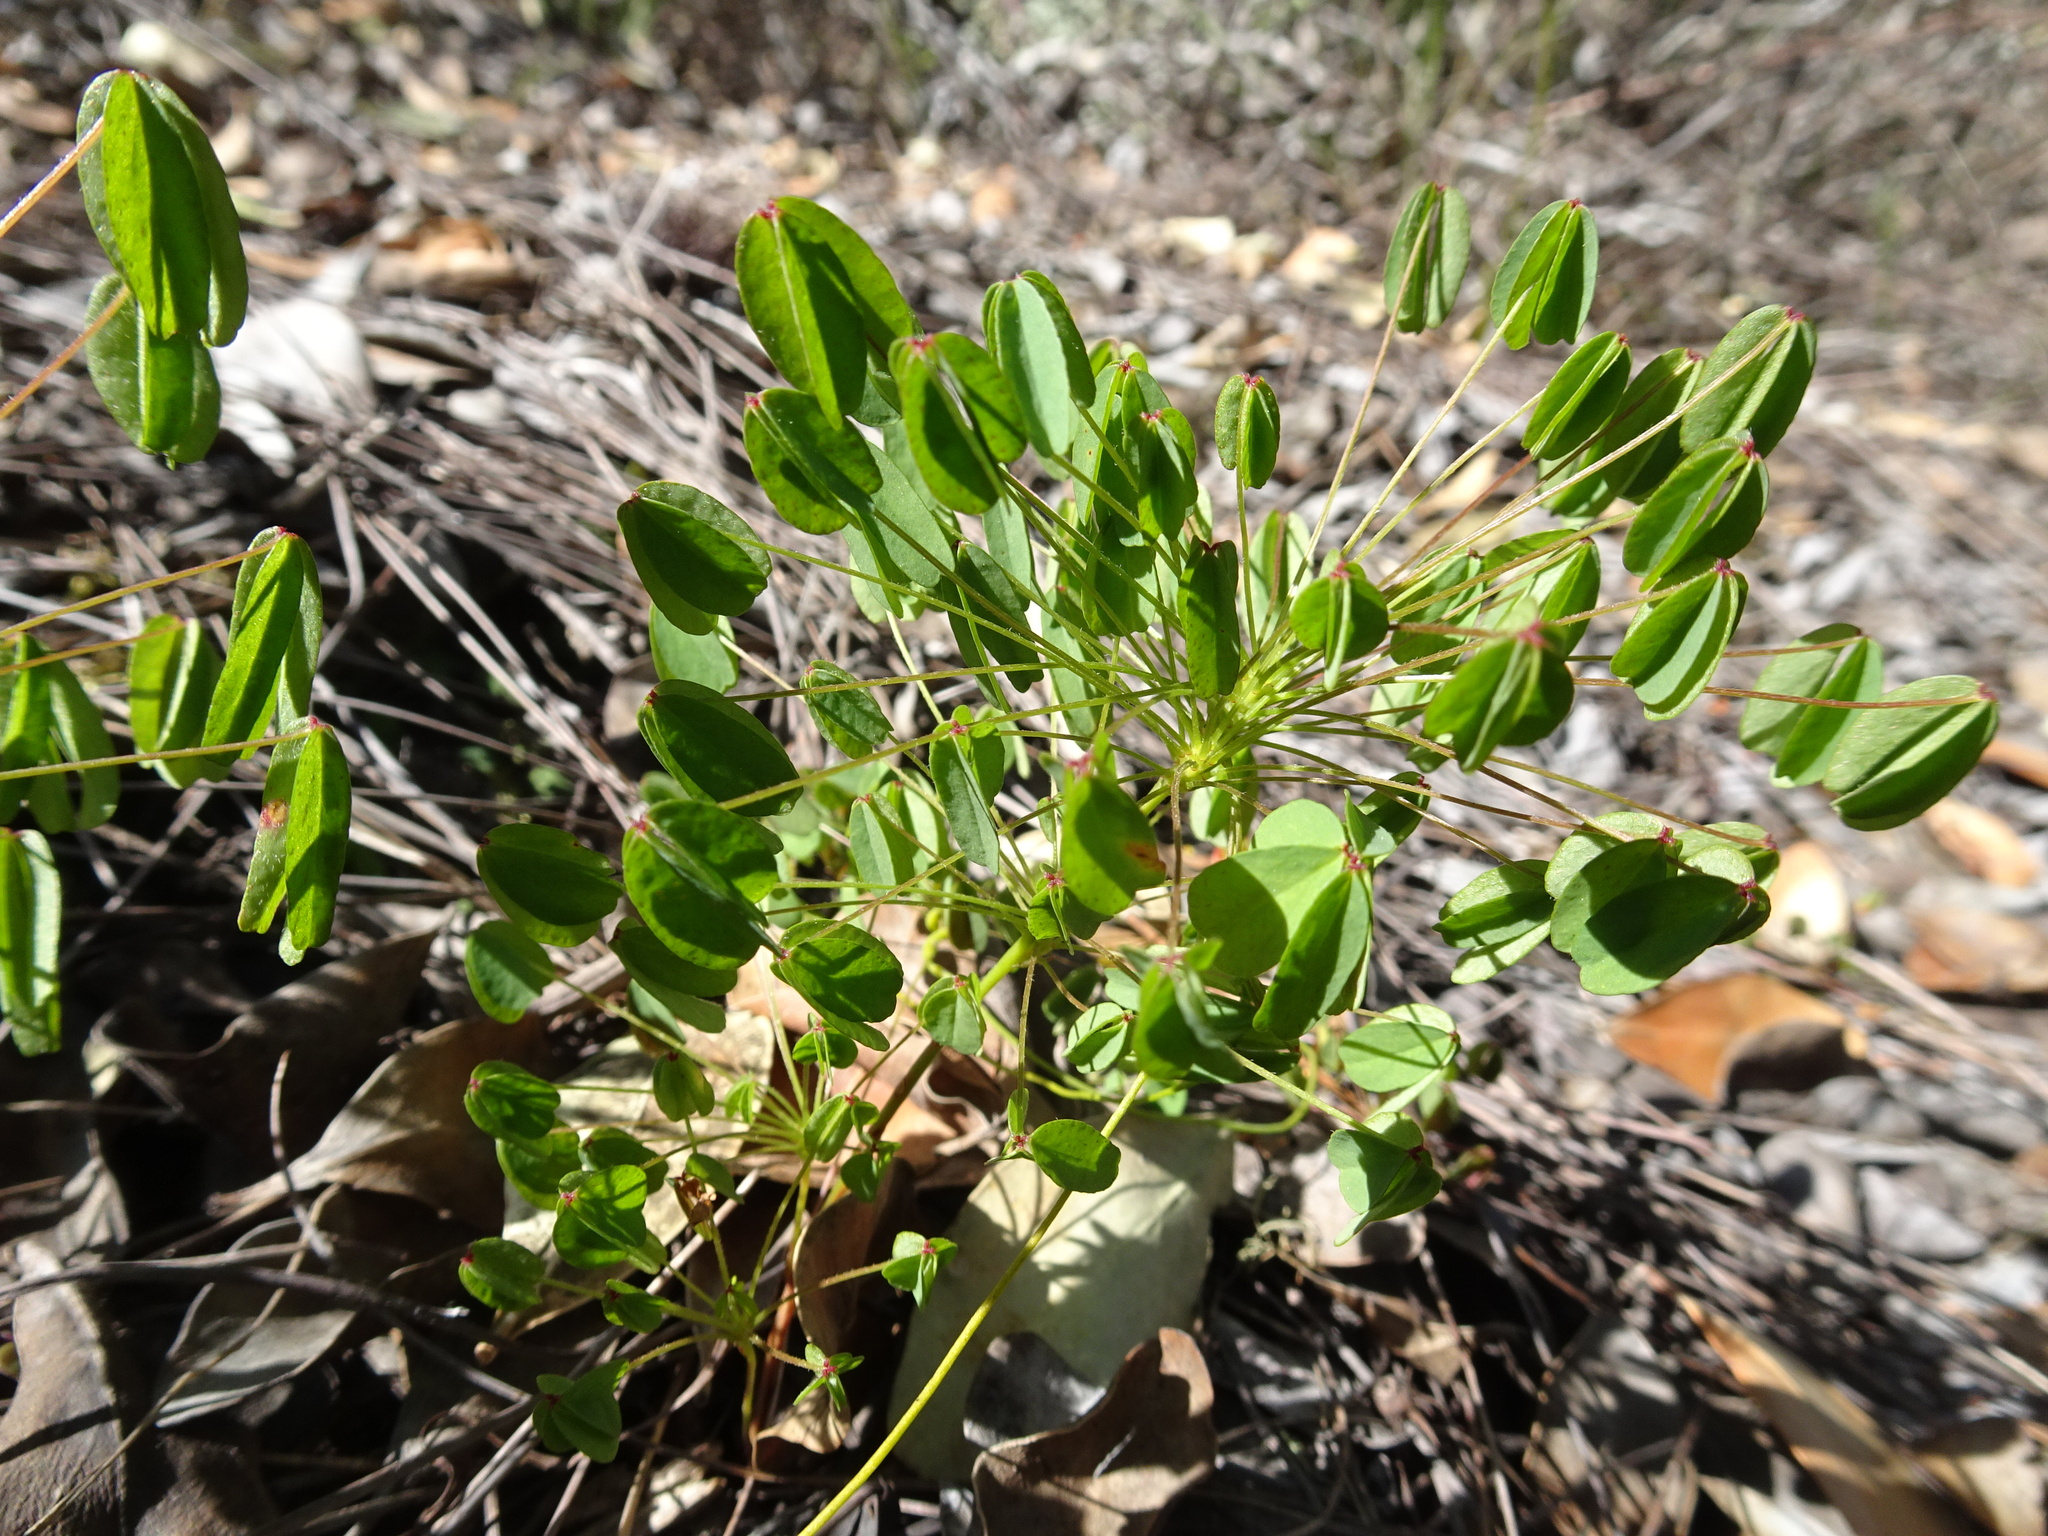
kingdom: Plantae
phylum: Tracheophyta
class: Magnoliopsida
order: Oxalidales
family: Oxalidaceae
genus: Oxalis
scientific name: Oxalis pendulifolia
